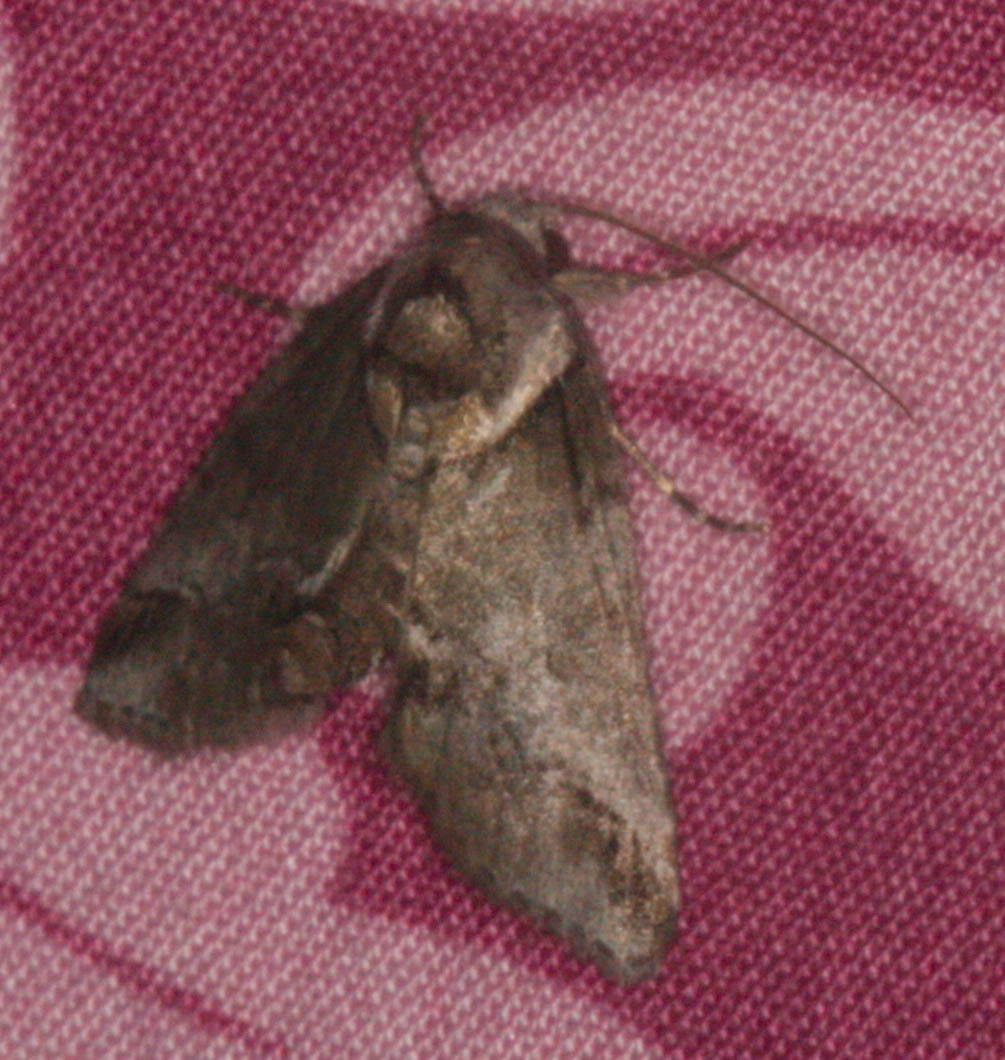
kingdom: Animalia
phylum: Arthropoda
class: Insecta
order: Lepidoptera
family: Nolidae
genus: Baileya
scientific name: Baileya australis
